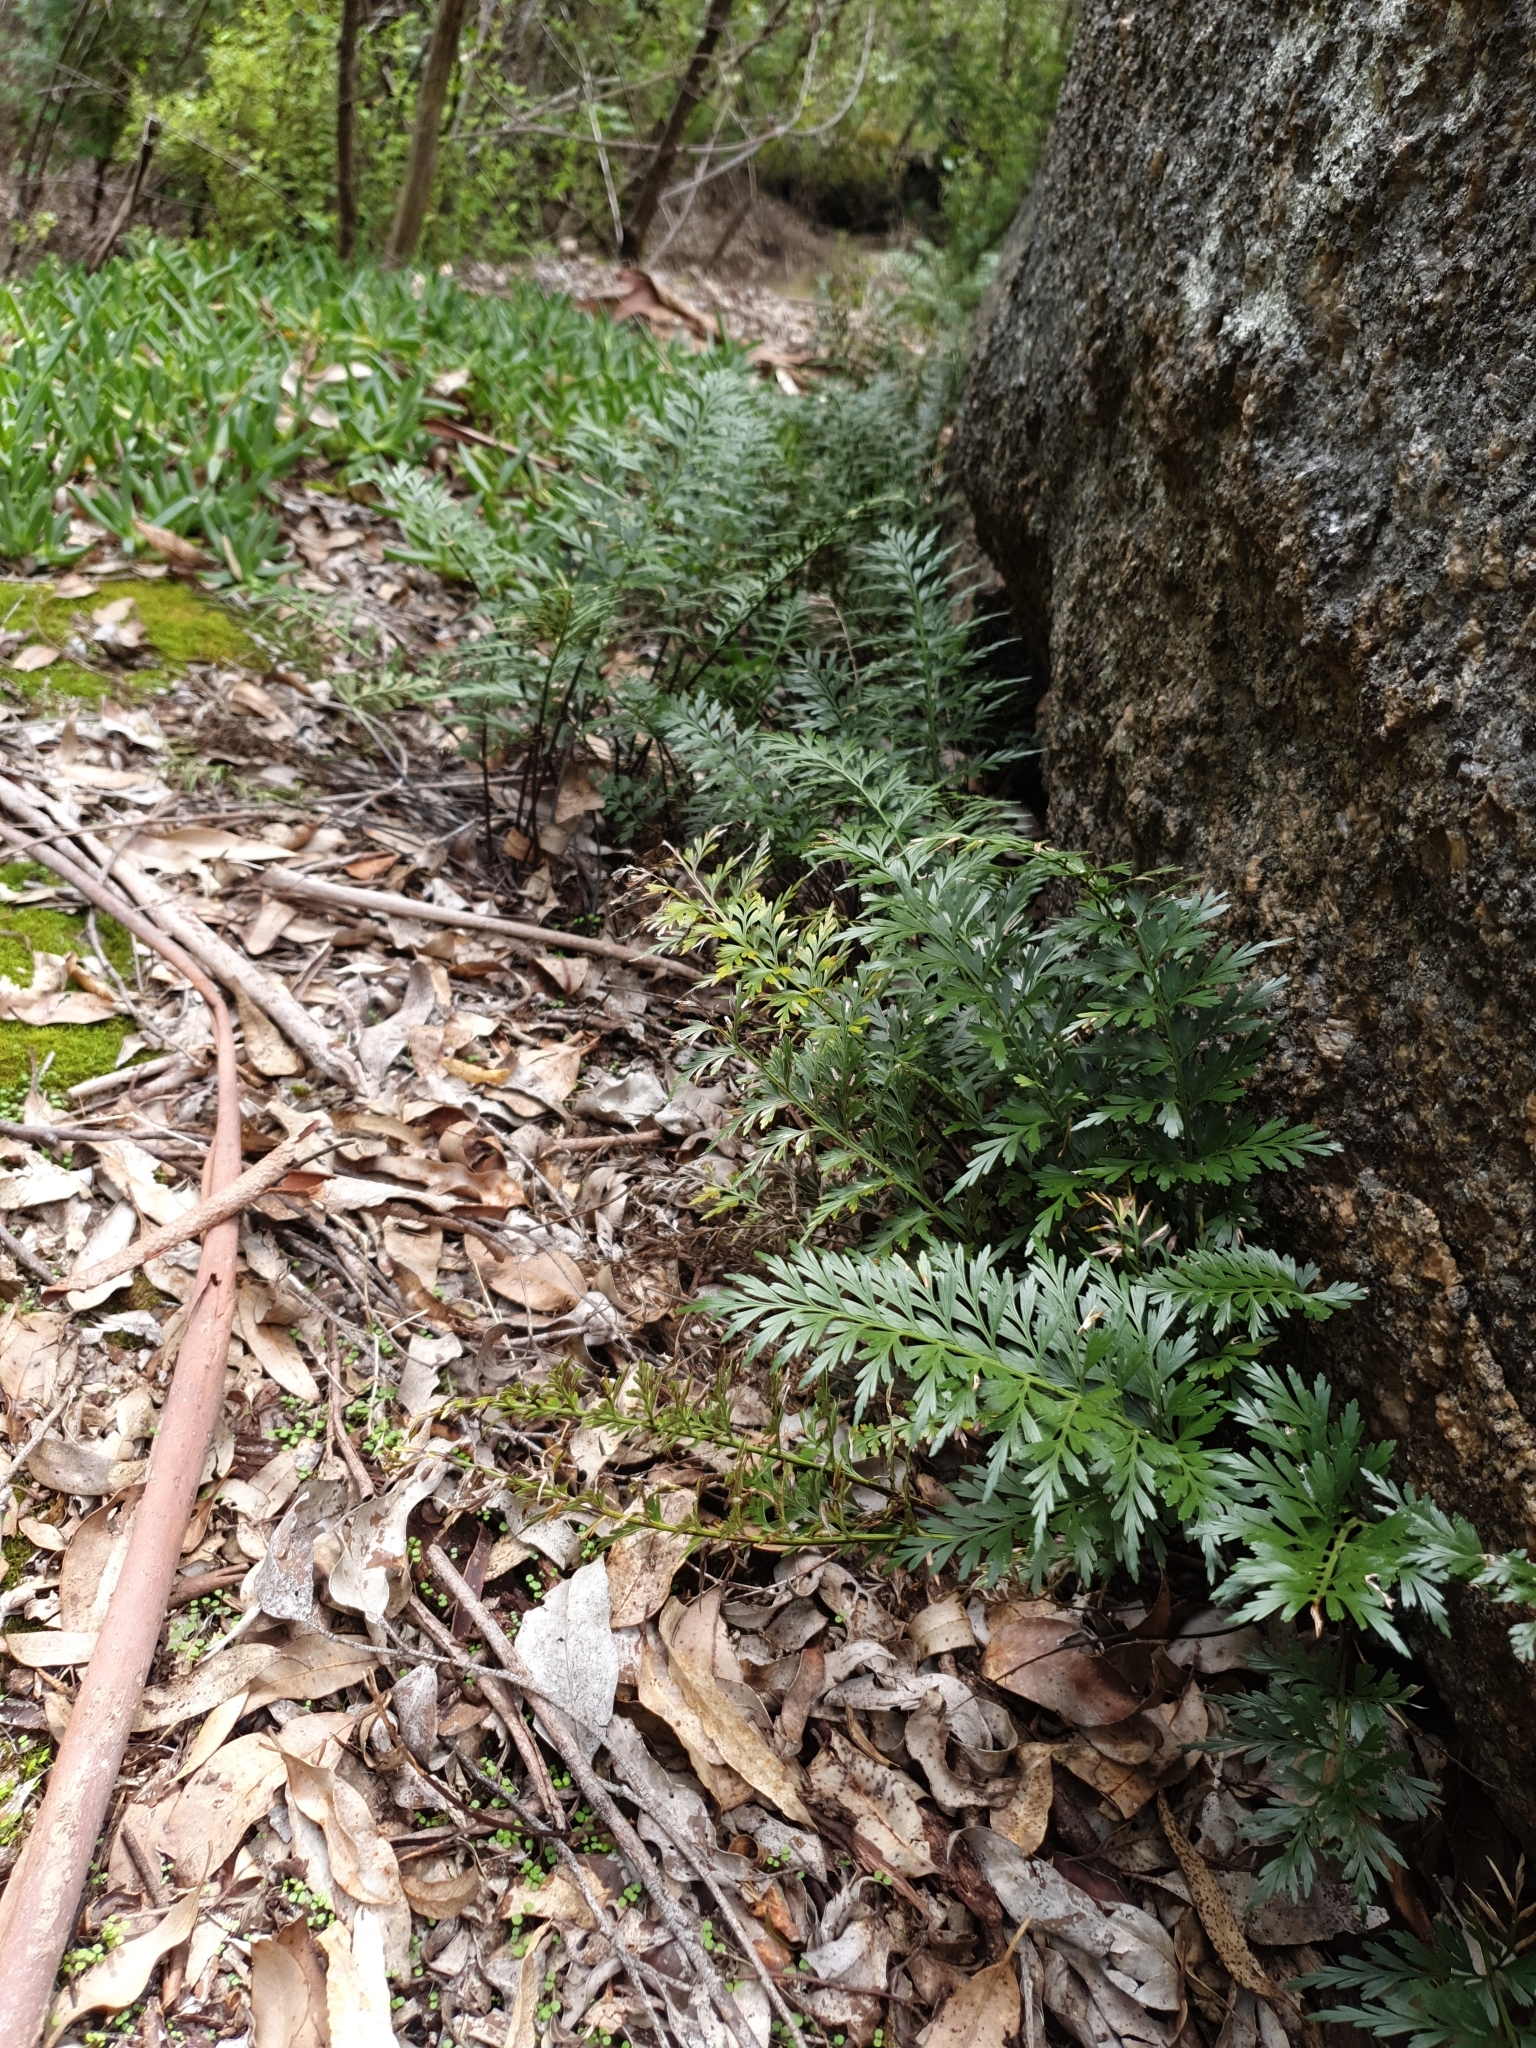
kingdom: Plantae
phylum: Tracheophyta
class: Polypodiopsida
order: Polypodiales
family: Aspleniaceae
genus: Asplenium
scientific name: Asplenium aethiopicum
